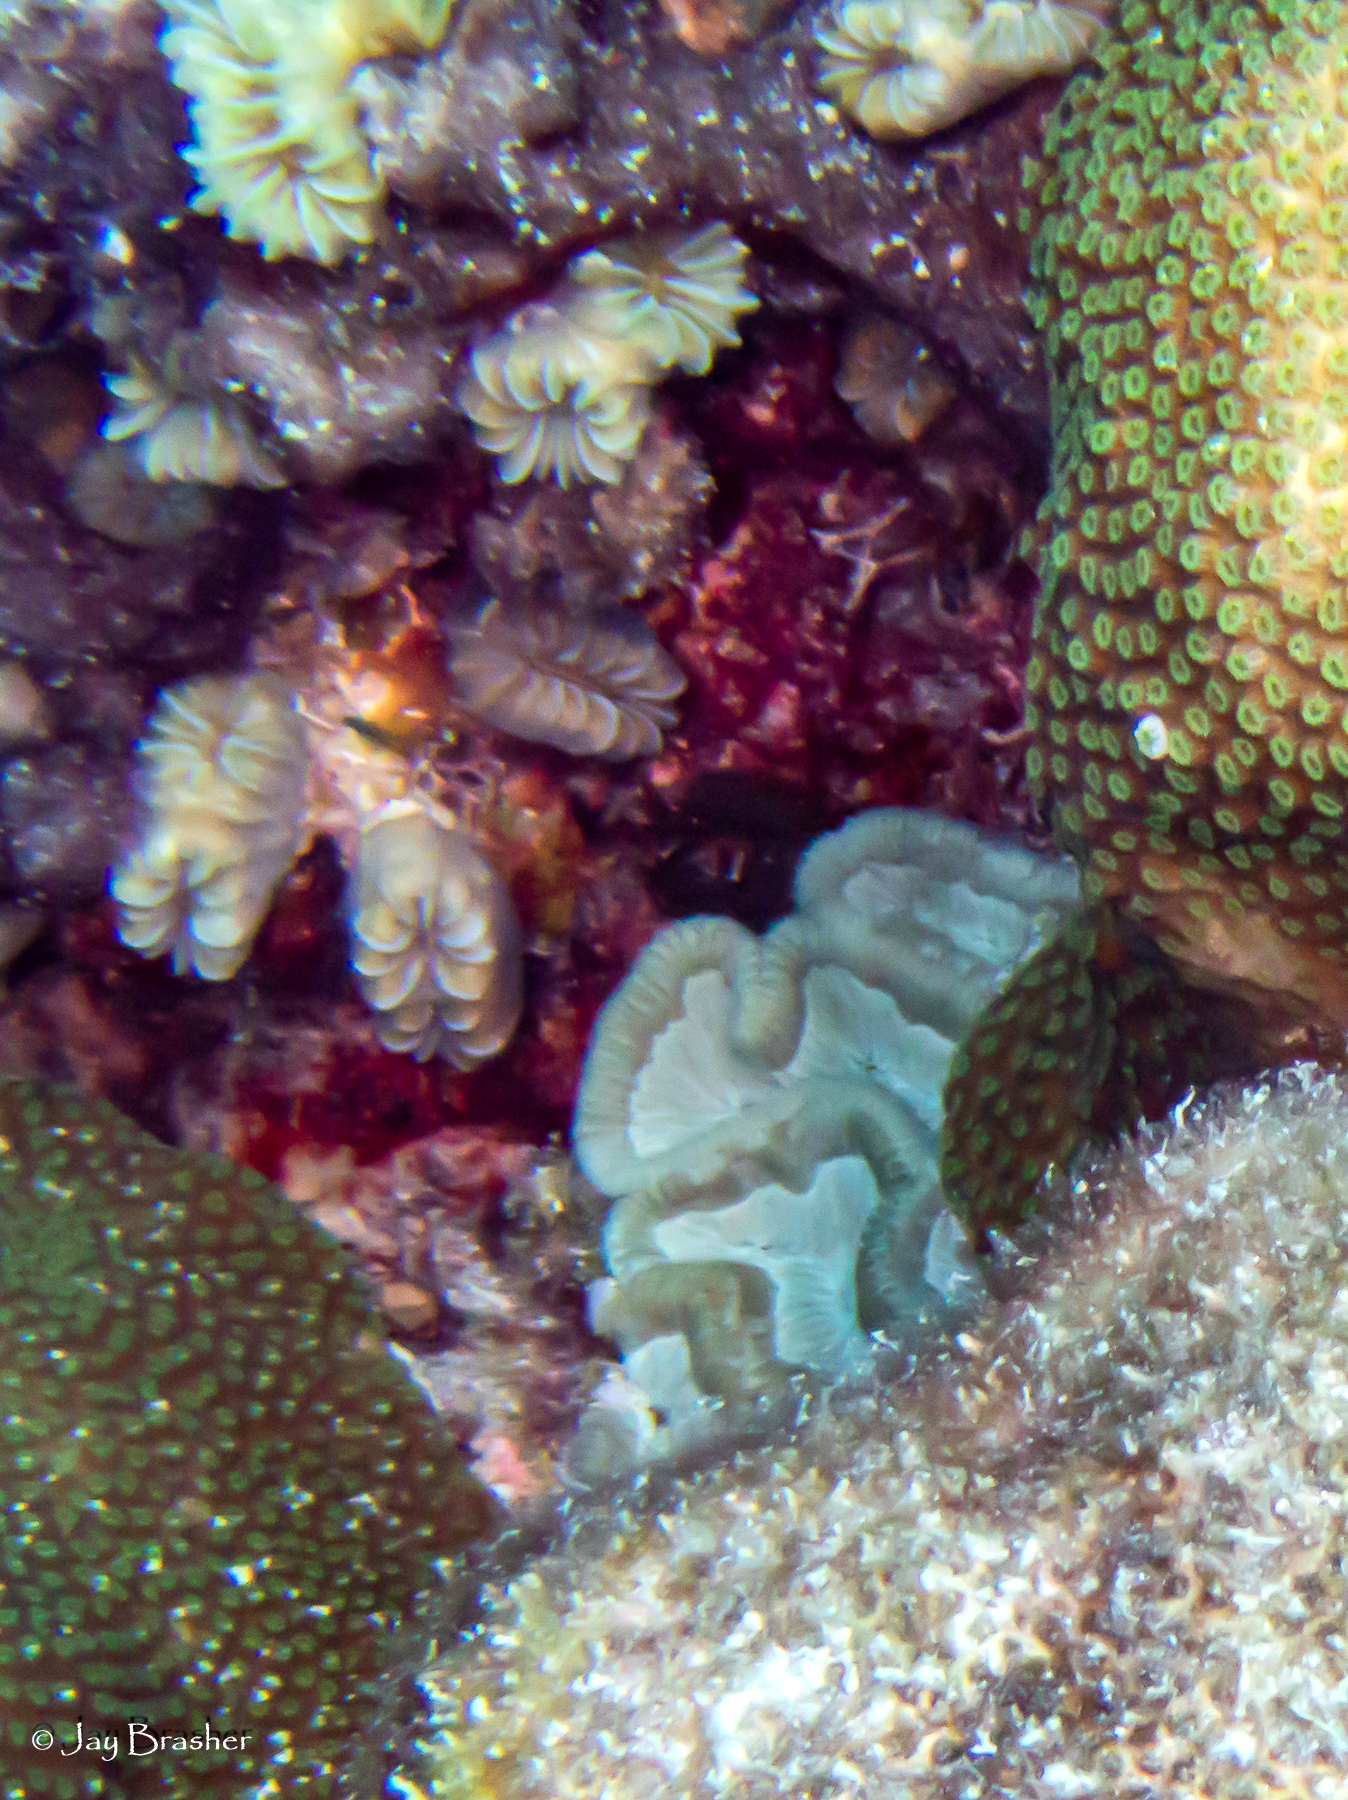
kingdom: Animalia
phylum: Cnidaria
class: Anthozoa
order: Scleractinia
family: Meandrinidae
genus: Eusmilia
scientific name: Eusmilia fastigiata
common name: Smooth flower coral
